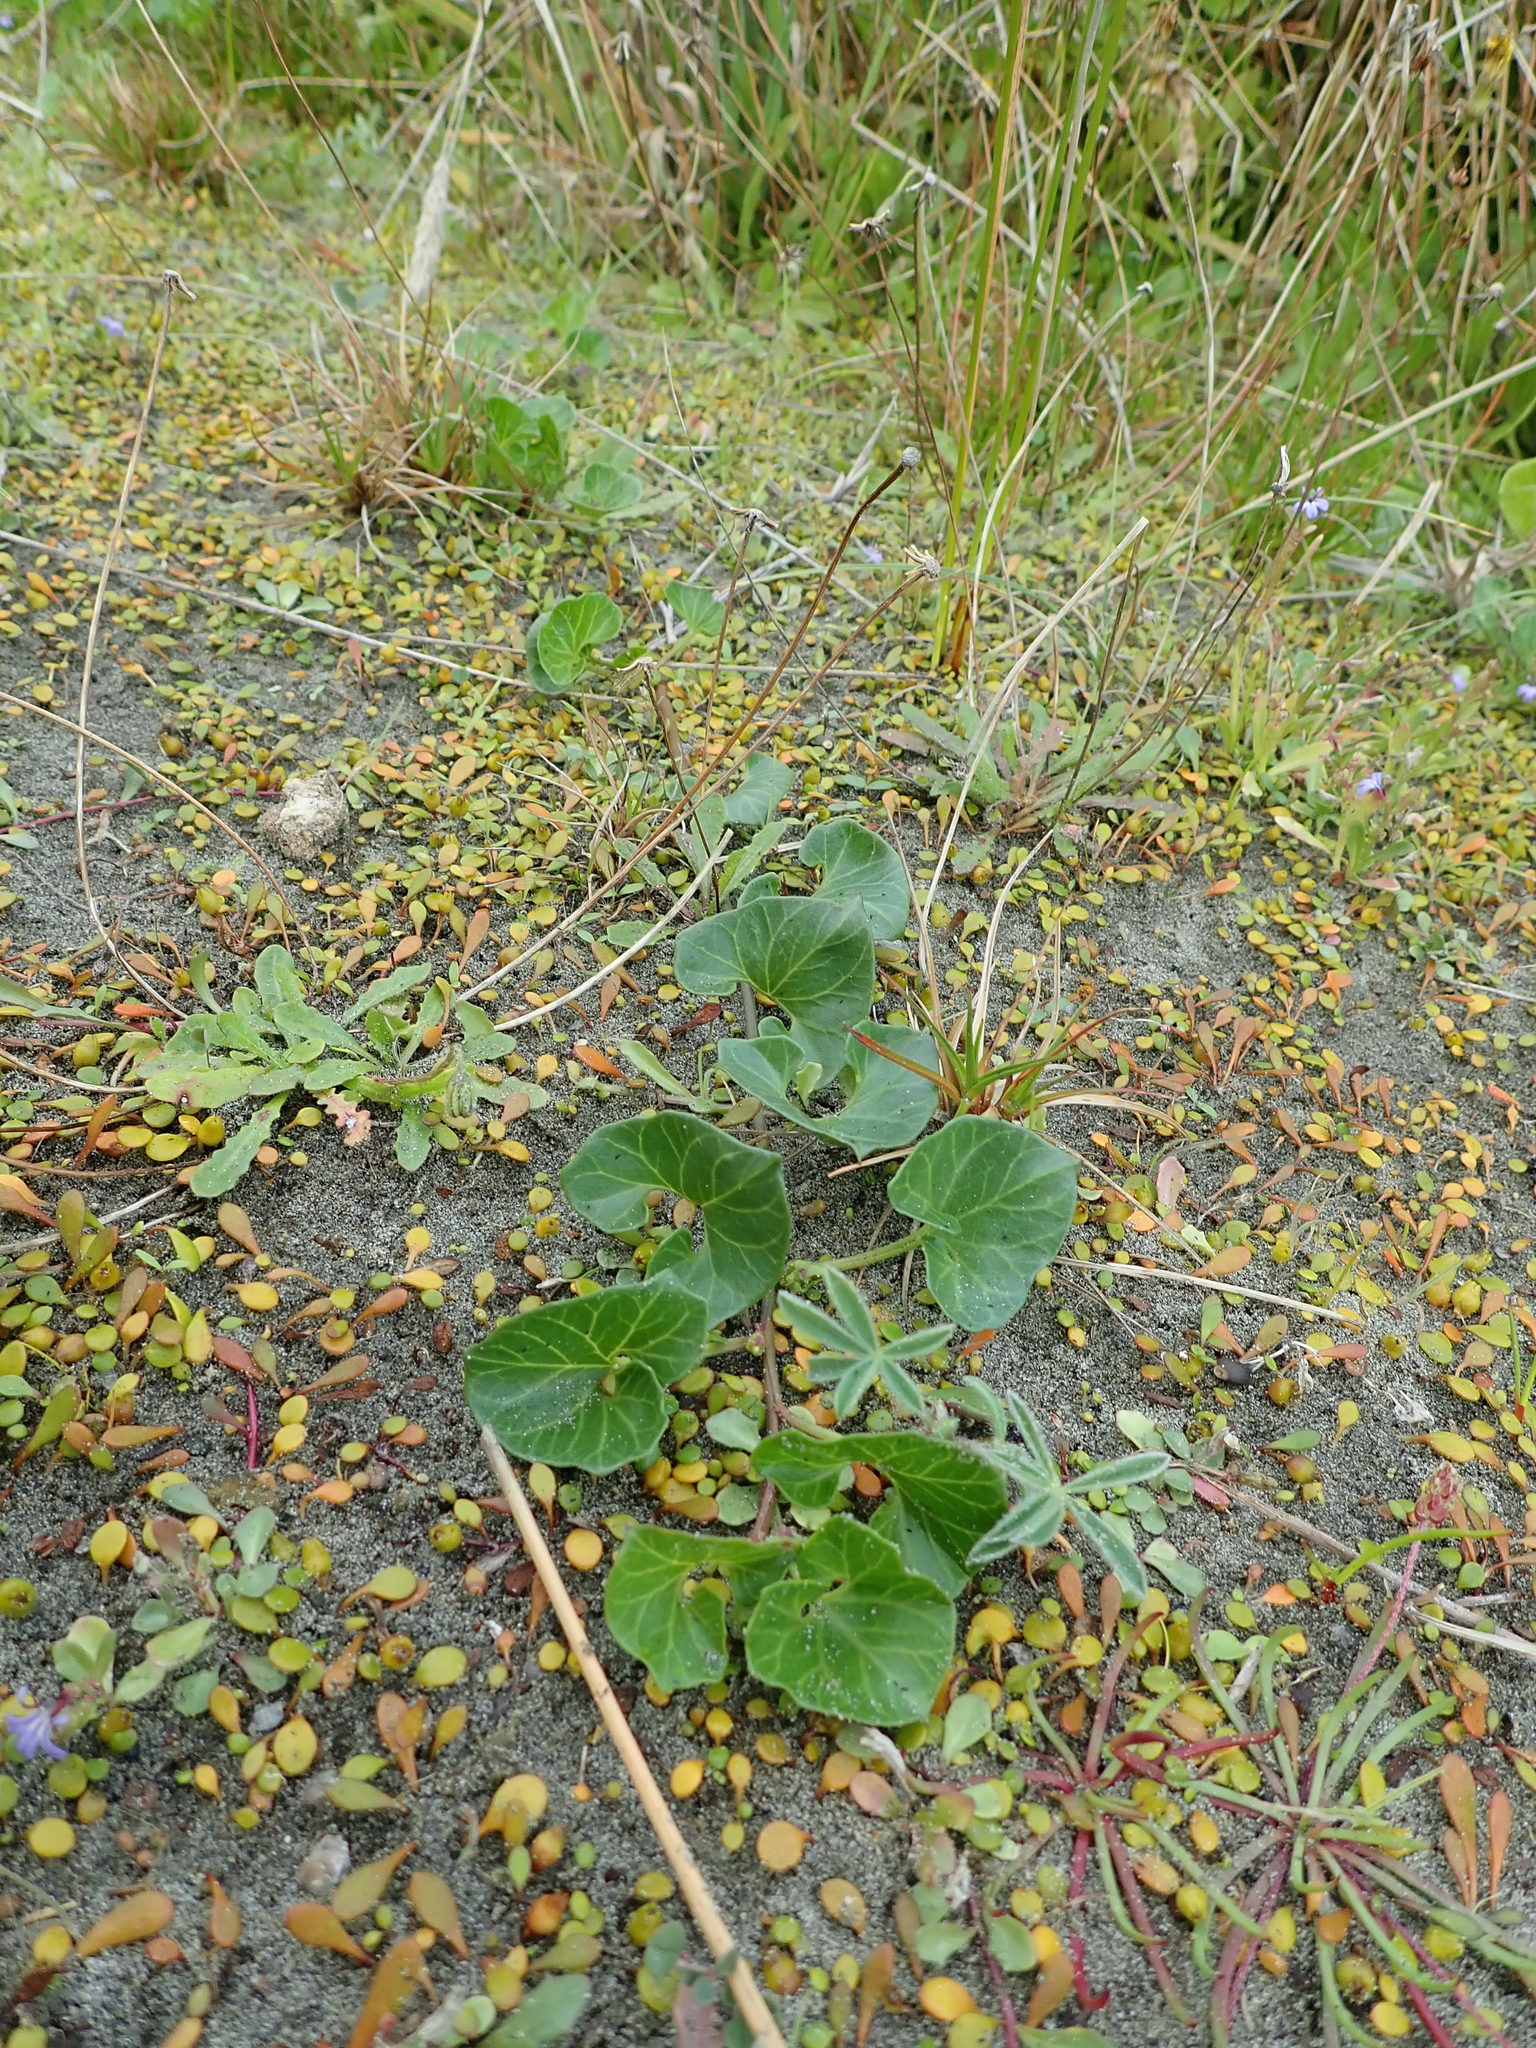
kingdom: Plantae
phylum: Tracheophyta
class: Magnoliopsida
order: Solanales
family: Convolvulaceae
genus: Calystegia
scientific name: Calystegia soldanella
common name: Sea bindweed
